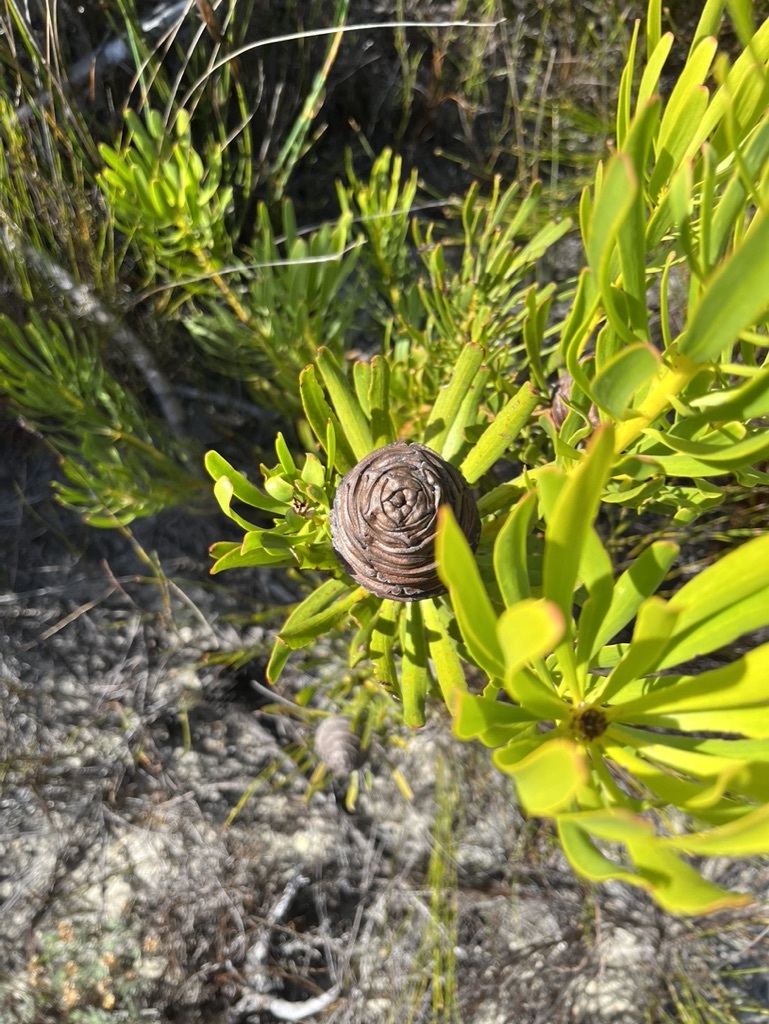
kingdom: Plantae
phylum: Tracheophyta
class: Magnoliopsida
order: Proteales
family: Proteaceae
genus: Leucadendron
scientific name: Leucadendron platyspermum
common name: Plate-seed conebush
